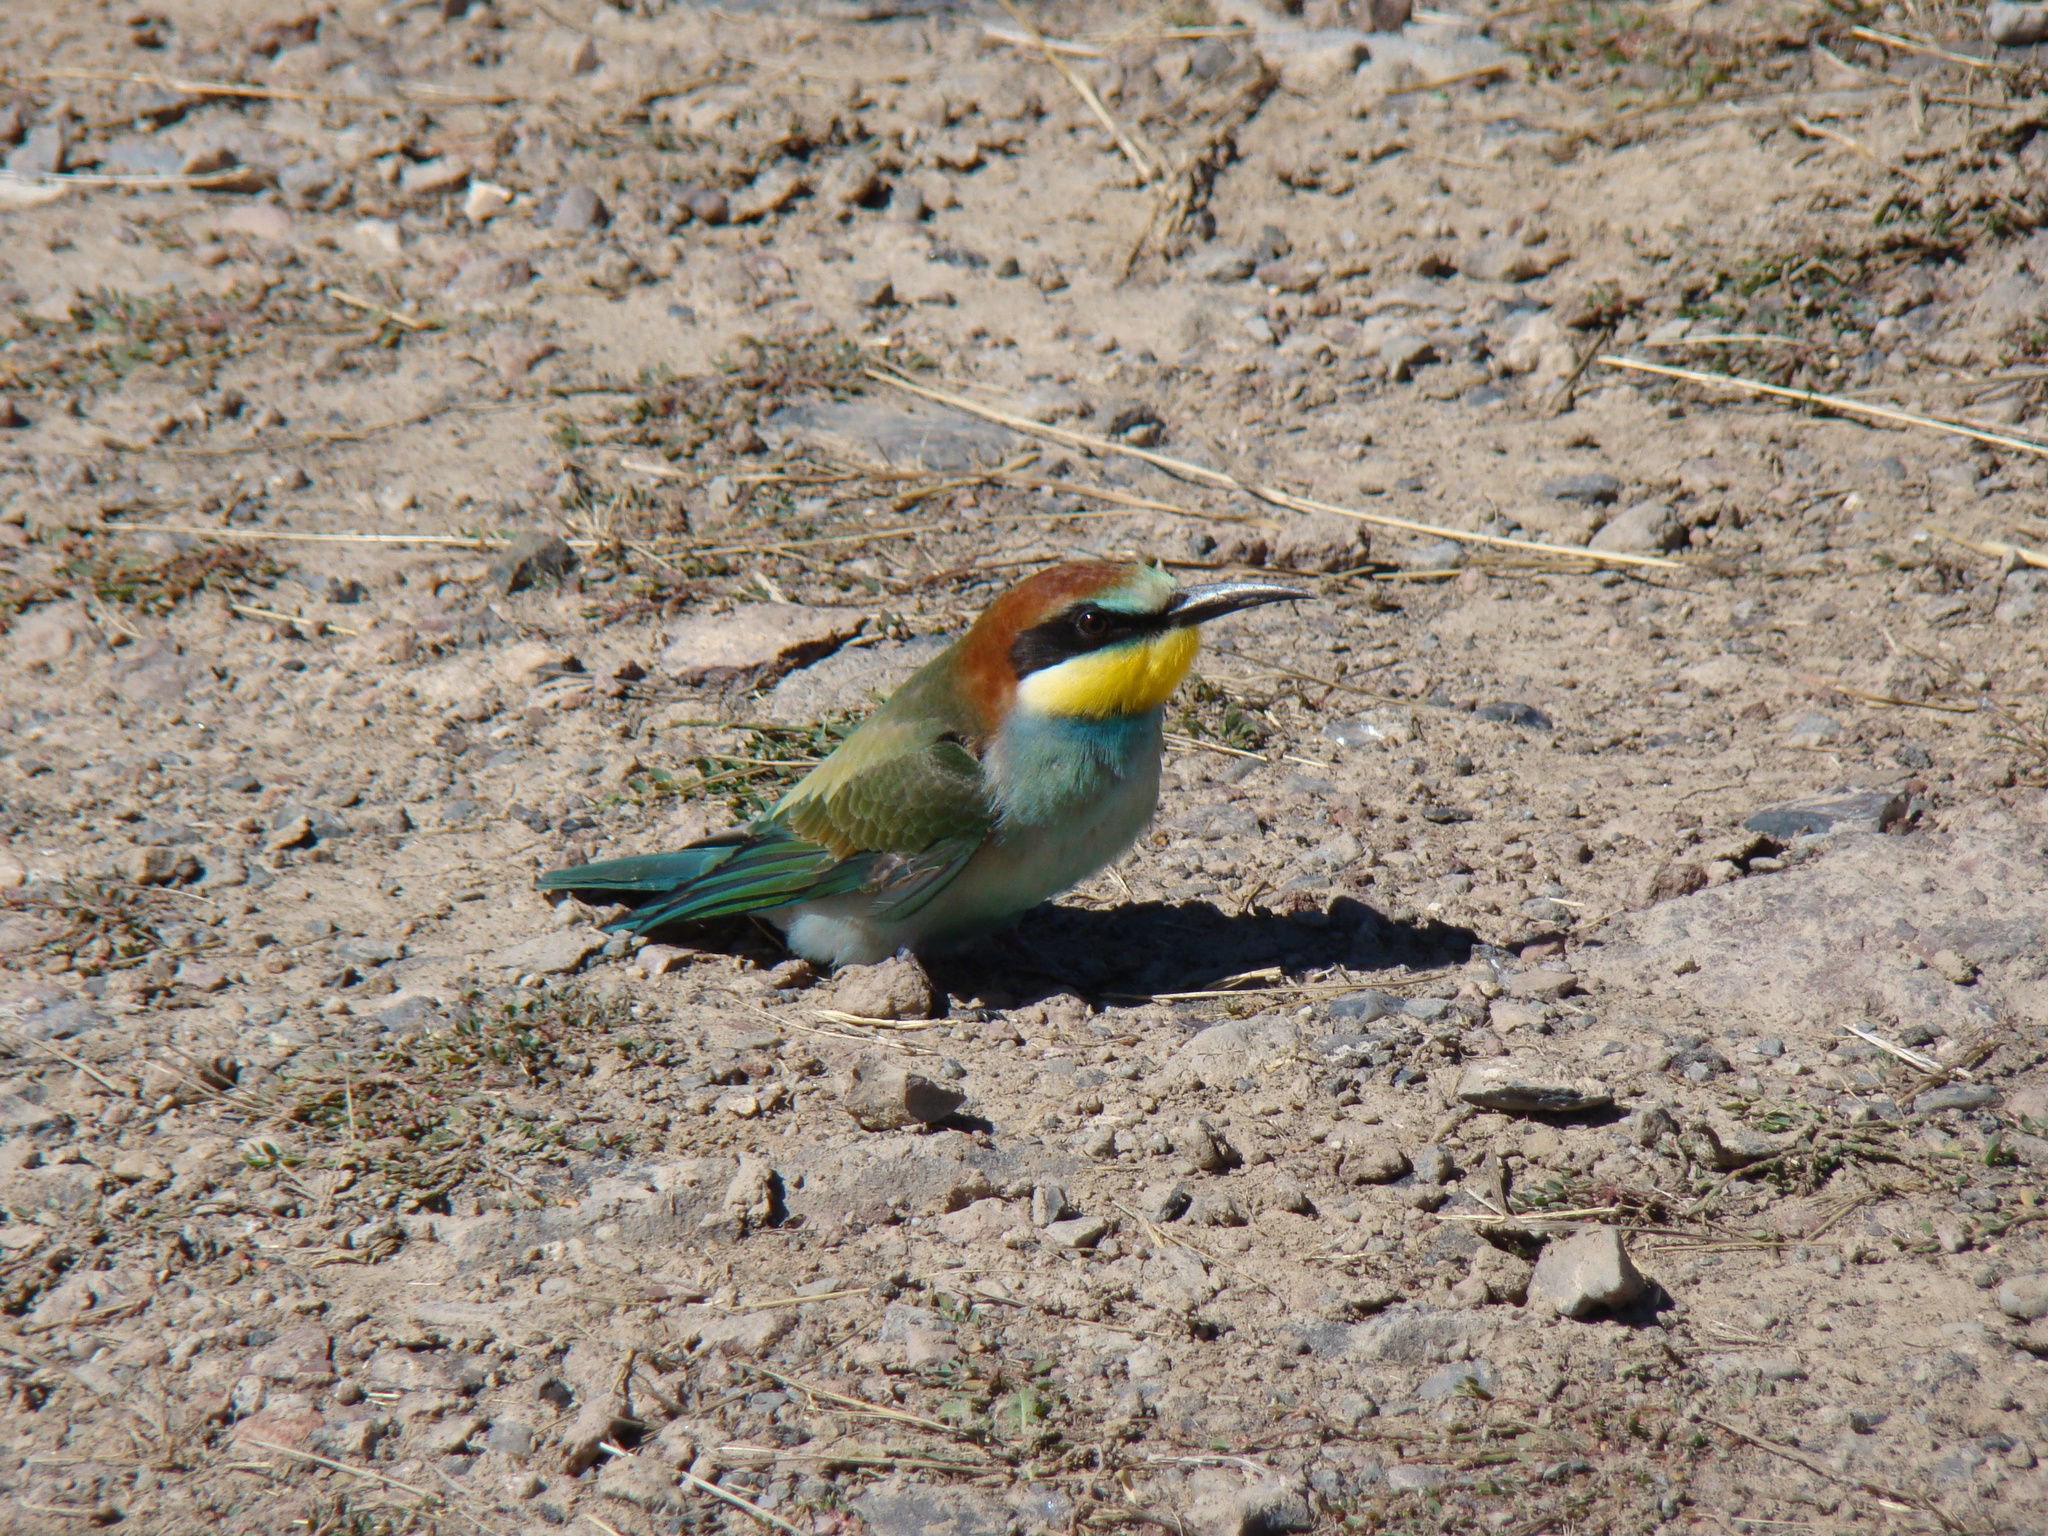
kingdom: Animalia
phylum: Chordata
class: Aves
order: Coraciiformes
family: Meropidae
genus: Merops
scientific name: Merops apiaster
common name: European bee-eater
